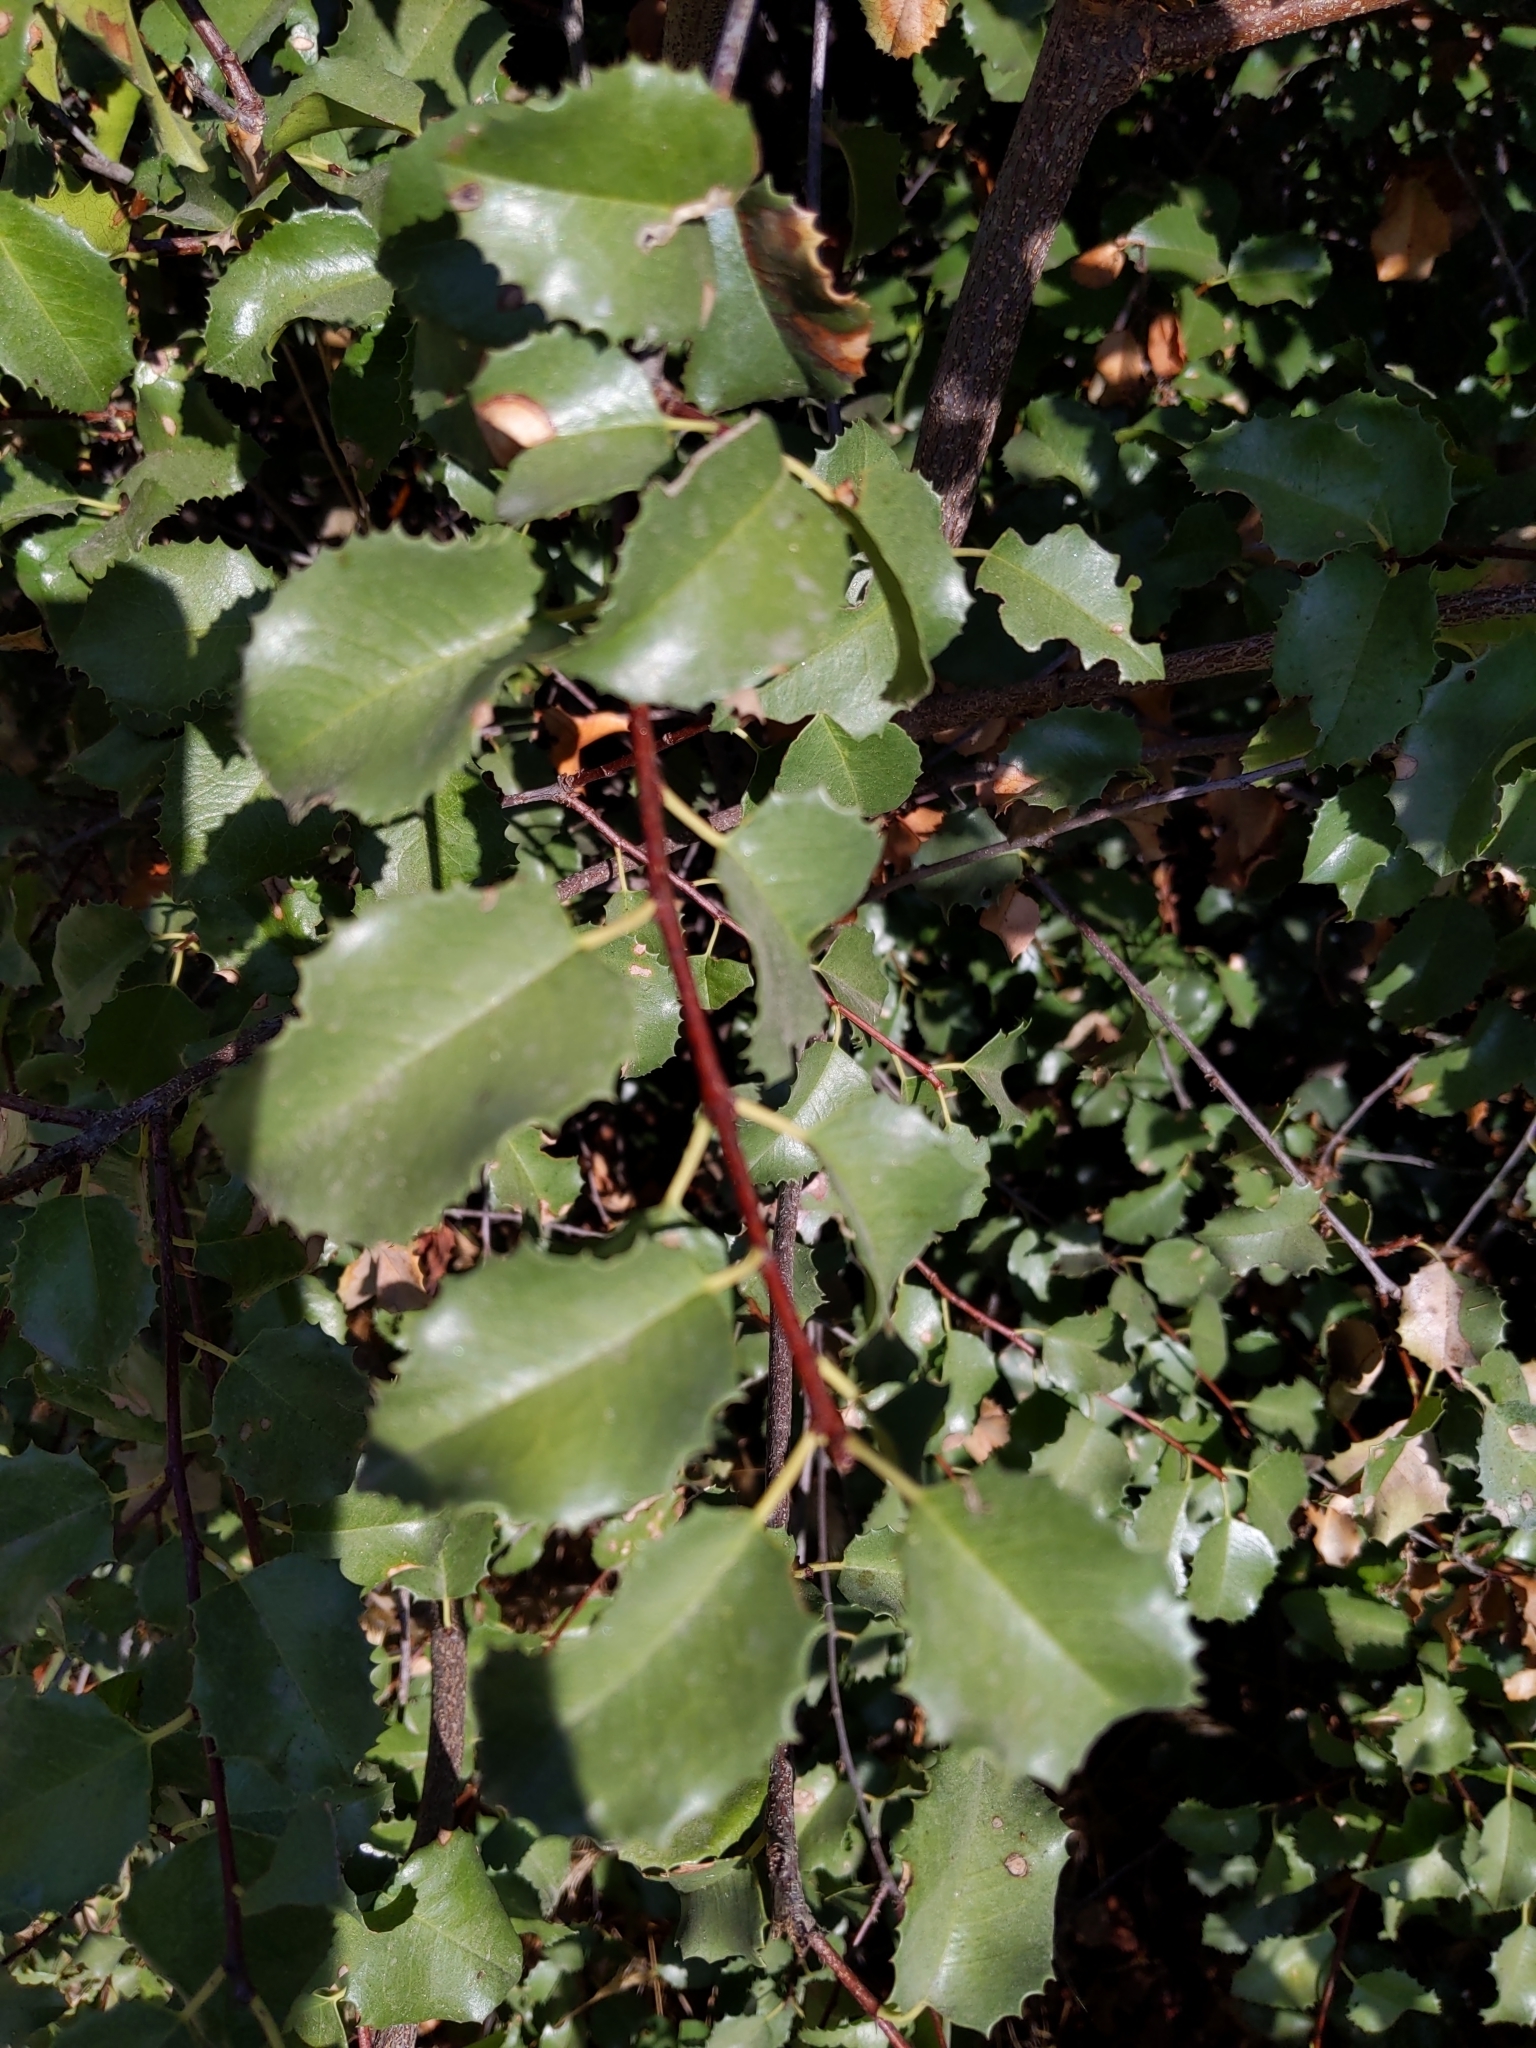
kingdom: Plantae
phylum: Tracheophyta
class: Magnoliopsida
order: Rosales
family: Rosaceae
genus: Prunus
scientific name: Prunus ilicifolia
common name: Hollyleaf cherry
